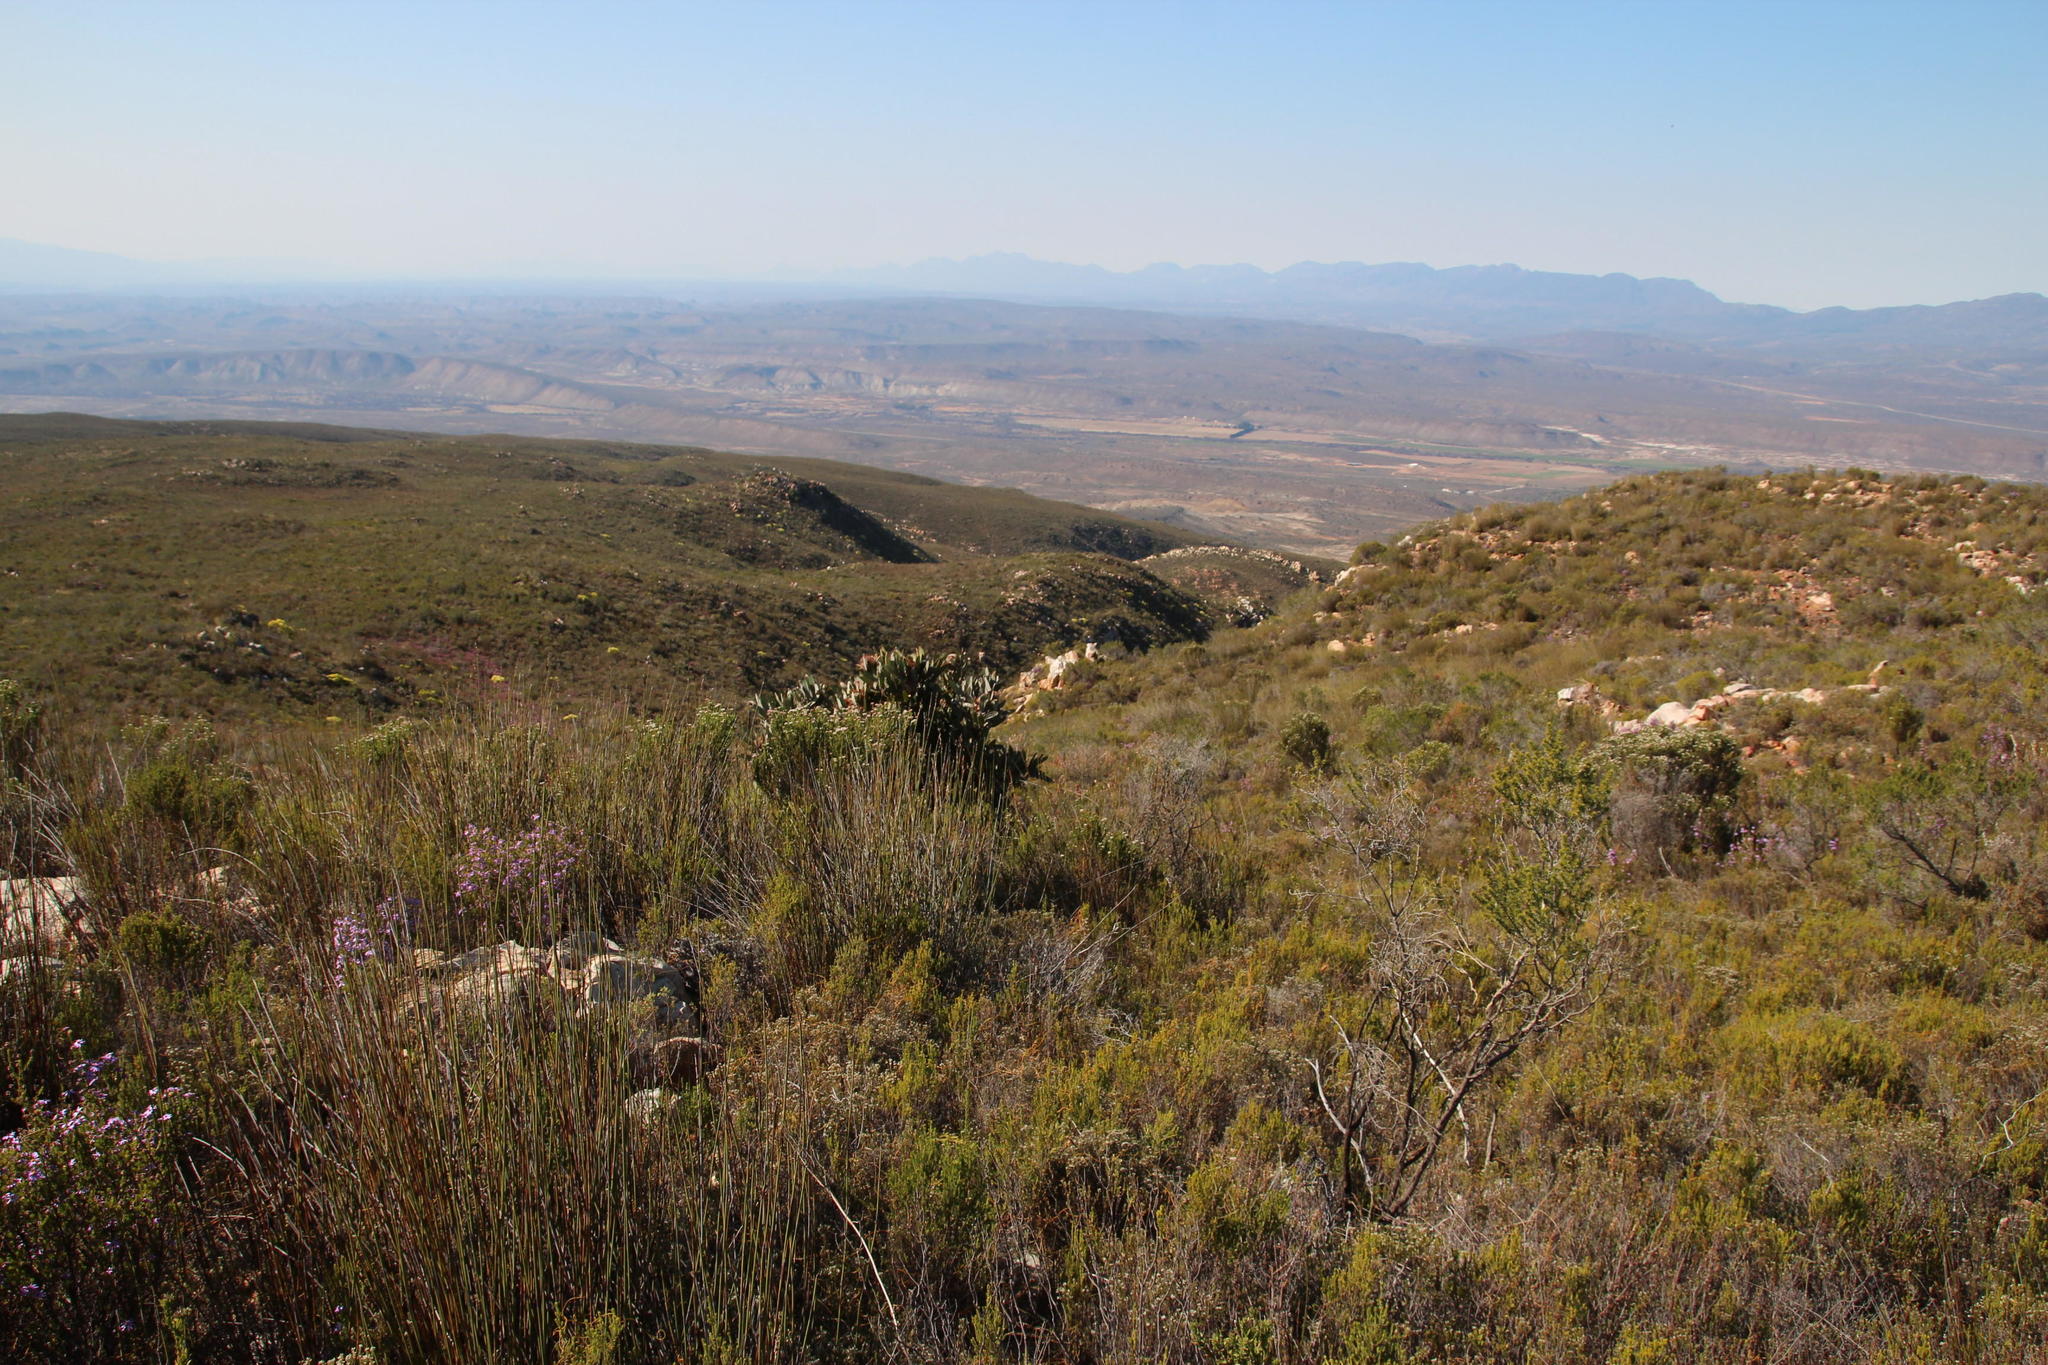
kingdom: Plantae
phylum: Tracheophyta
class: Magnoliopsida
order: Proteales
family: Proteaceae
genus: Protea
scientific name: Protea lorifolia
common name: Strap-leaved protea
